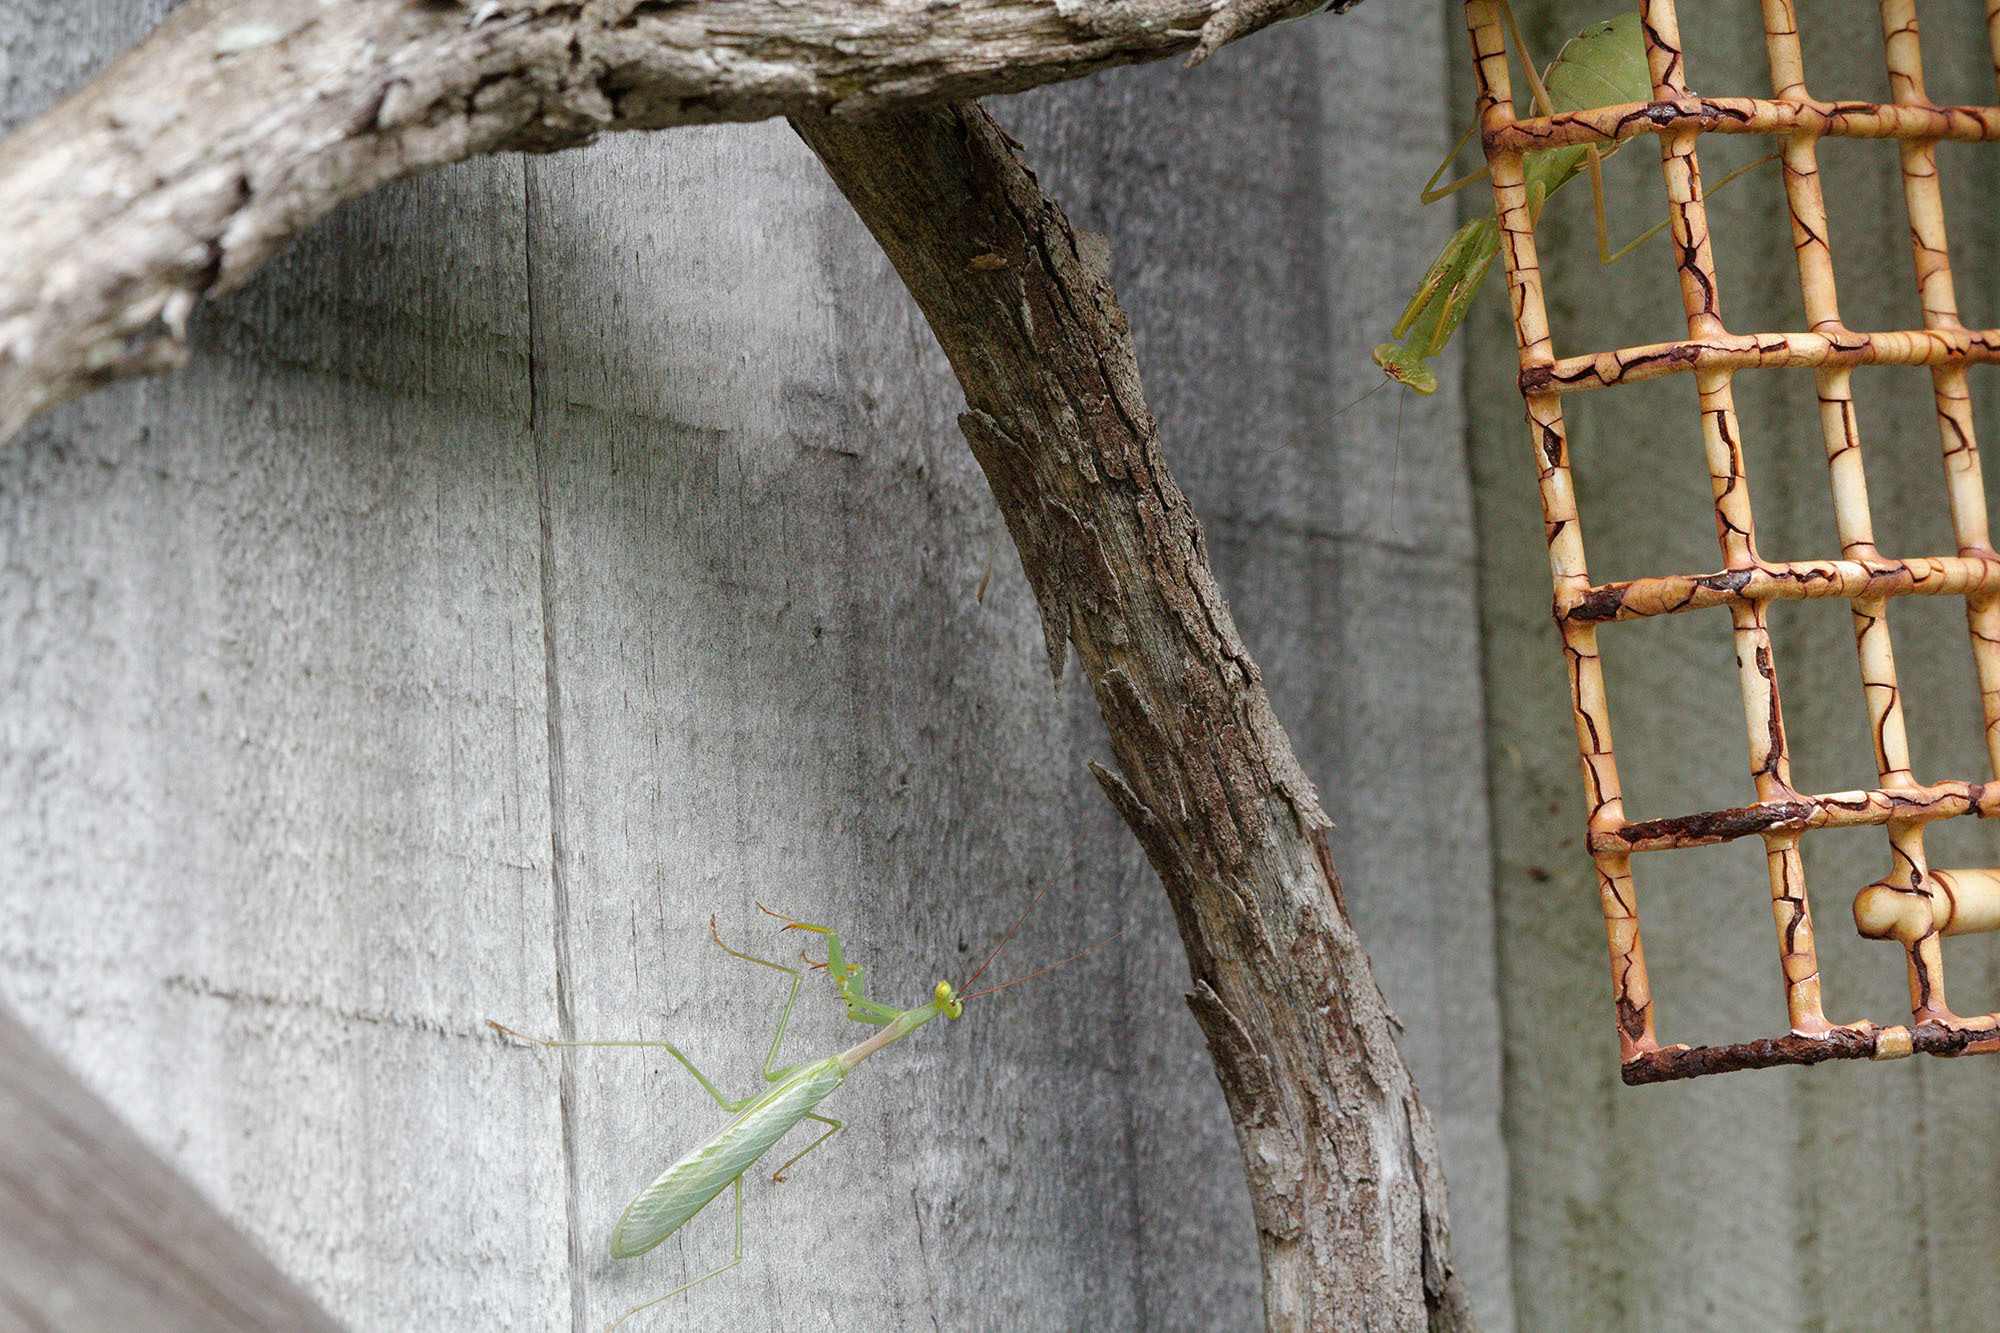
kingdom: Animalia
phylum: Arthropoda
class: Insecta
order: Mantodea
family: Miomantidae
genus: Miomantis
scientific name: Miomantis caffra
